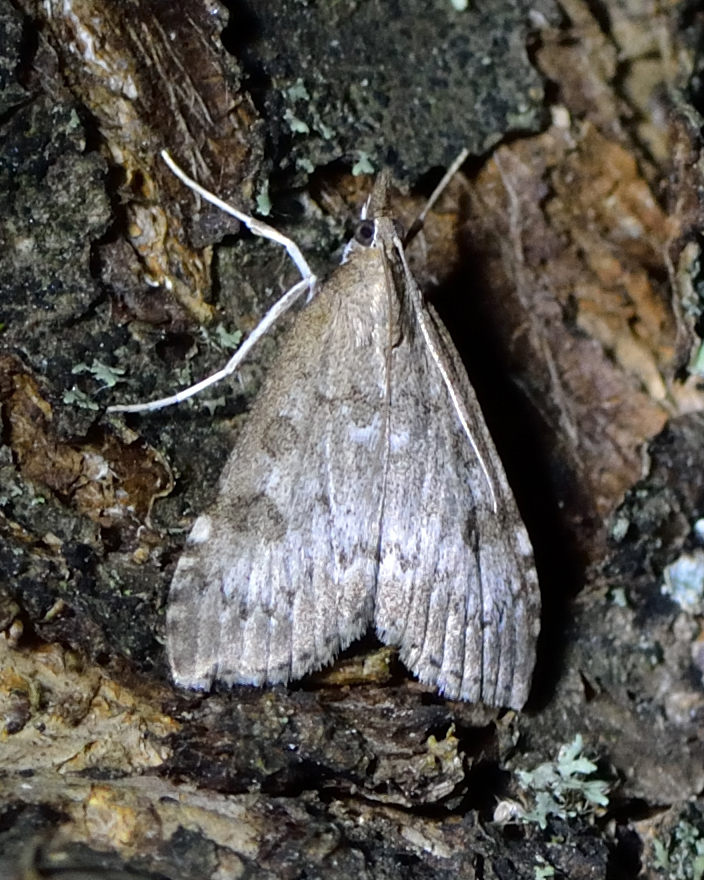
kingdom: Animalia
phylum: Arthropoda
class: Insecta
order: Lepidoptera
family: Crambidae
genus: Udea
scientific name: Udea prunalis
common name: Dusky pearl
